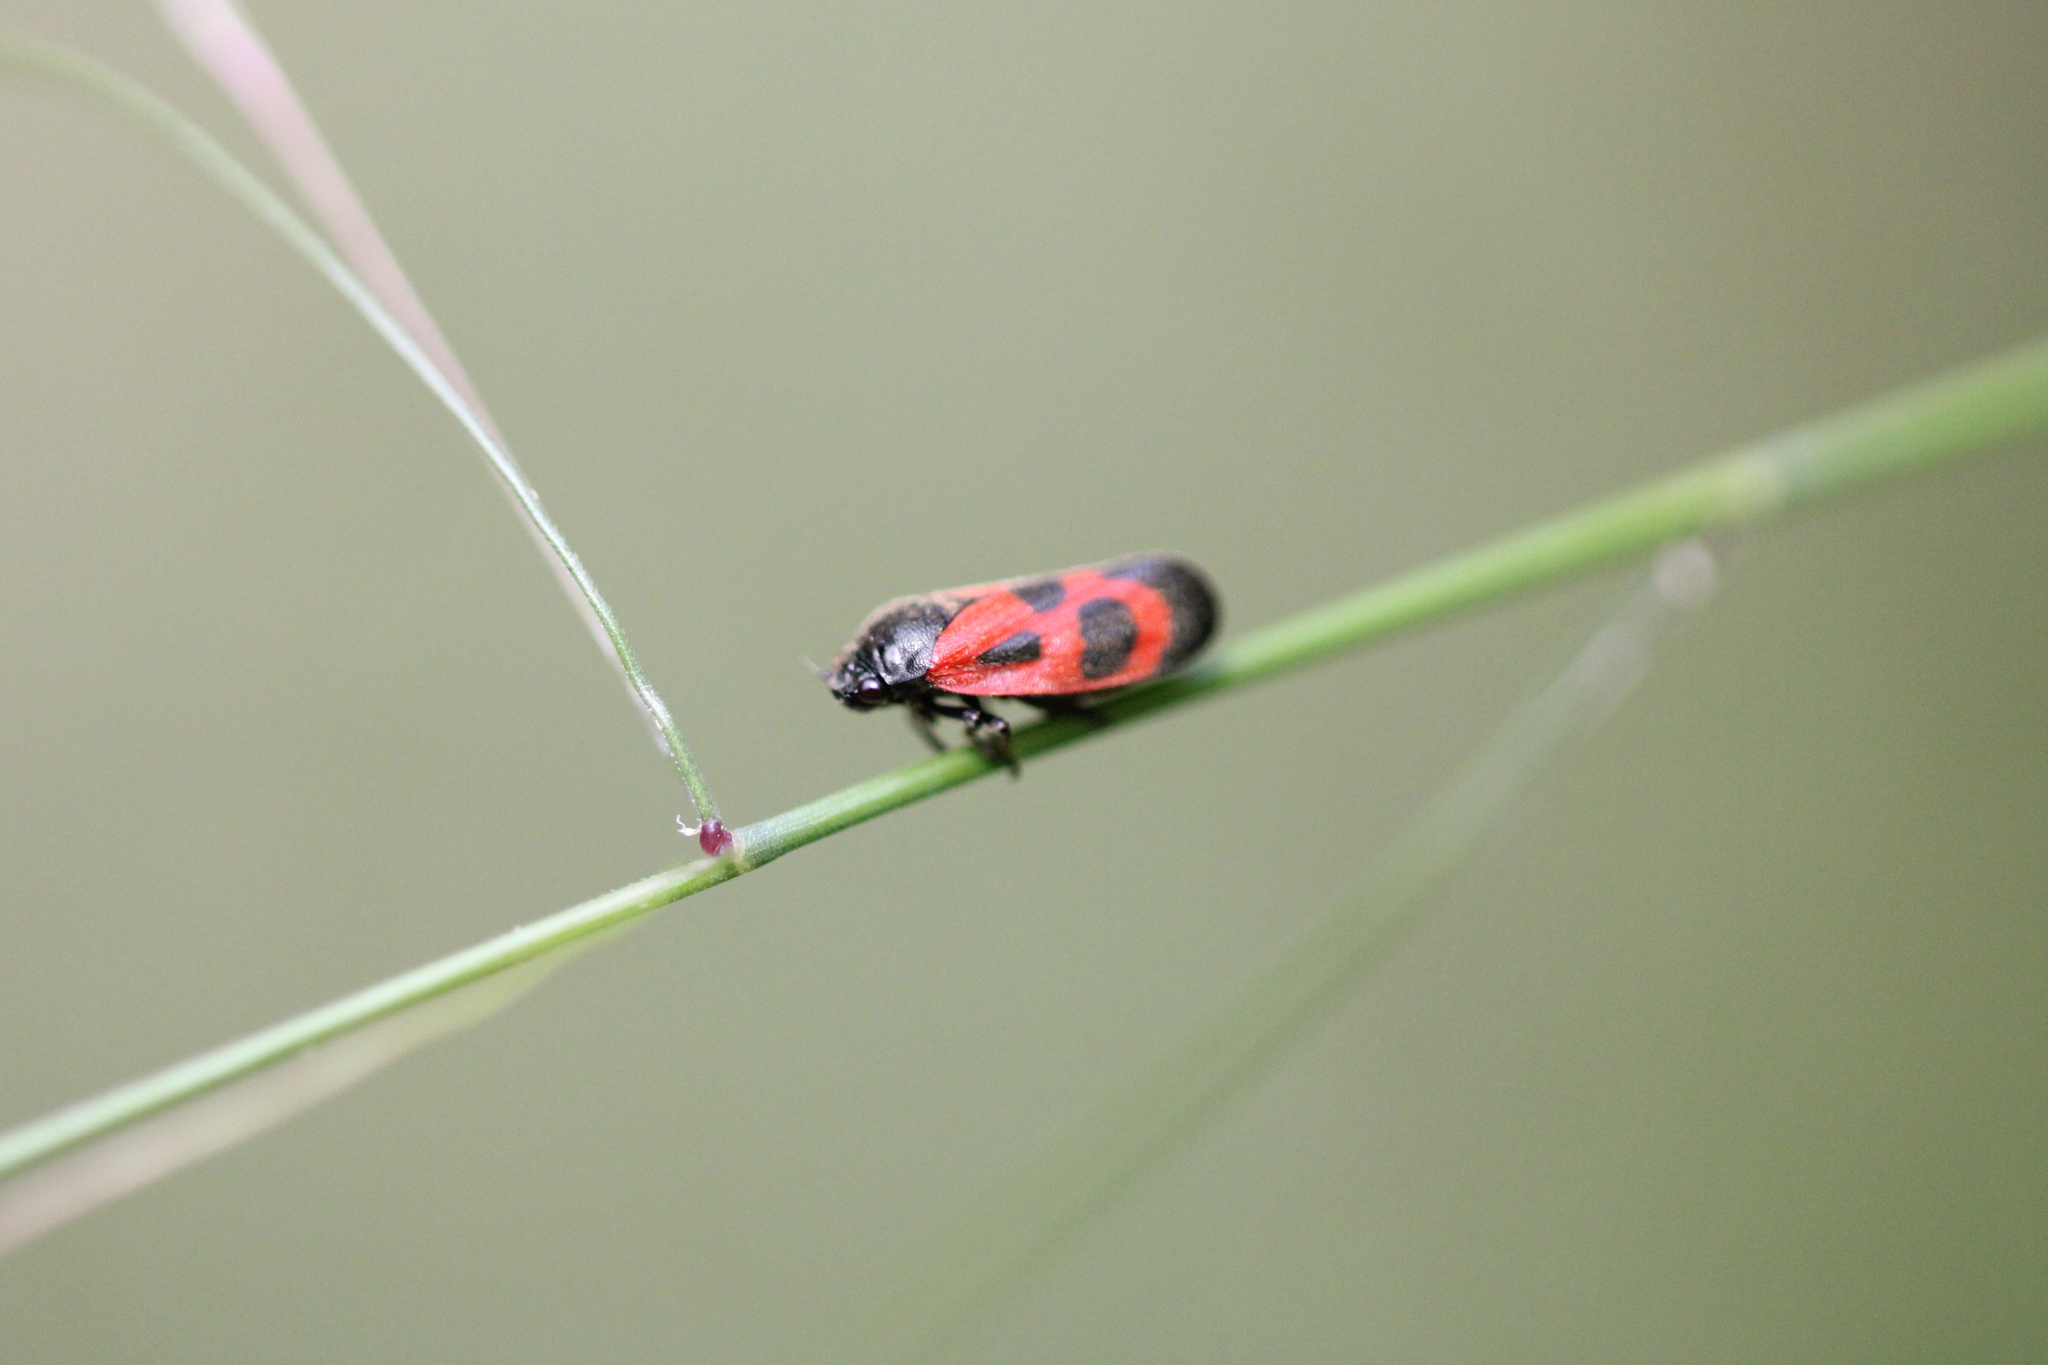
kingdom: Animalia
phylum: Arthropoda
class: Insecta
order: Hemiptera
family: Cercopidae
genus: Haematoloma
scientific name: Haematoloma dorsata
